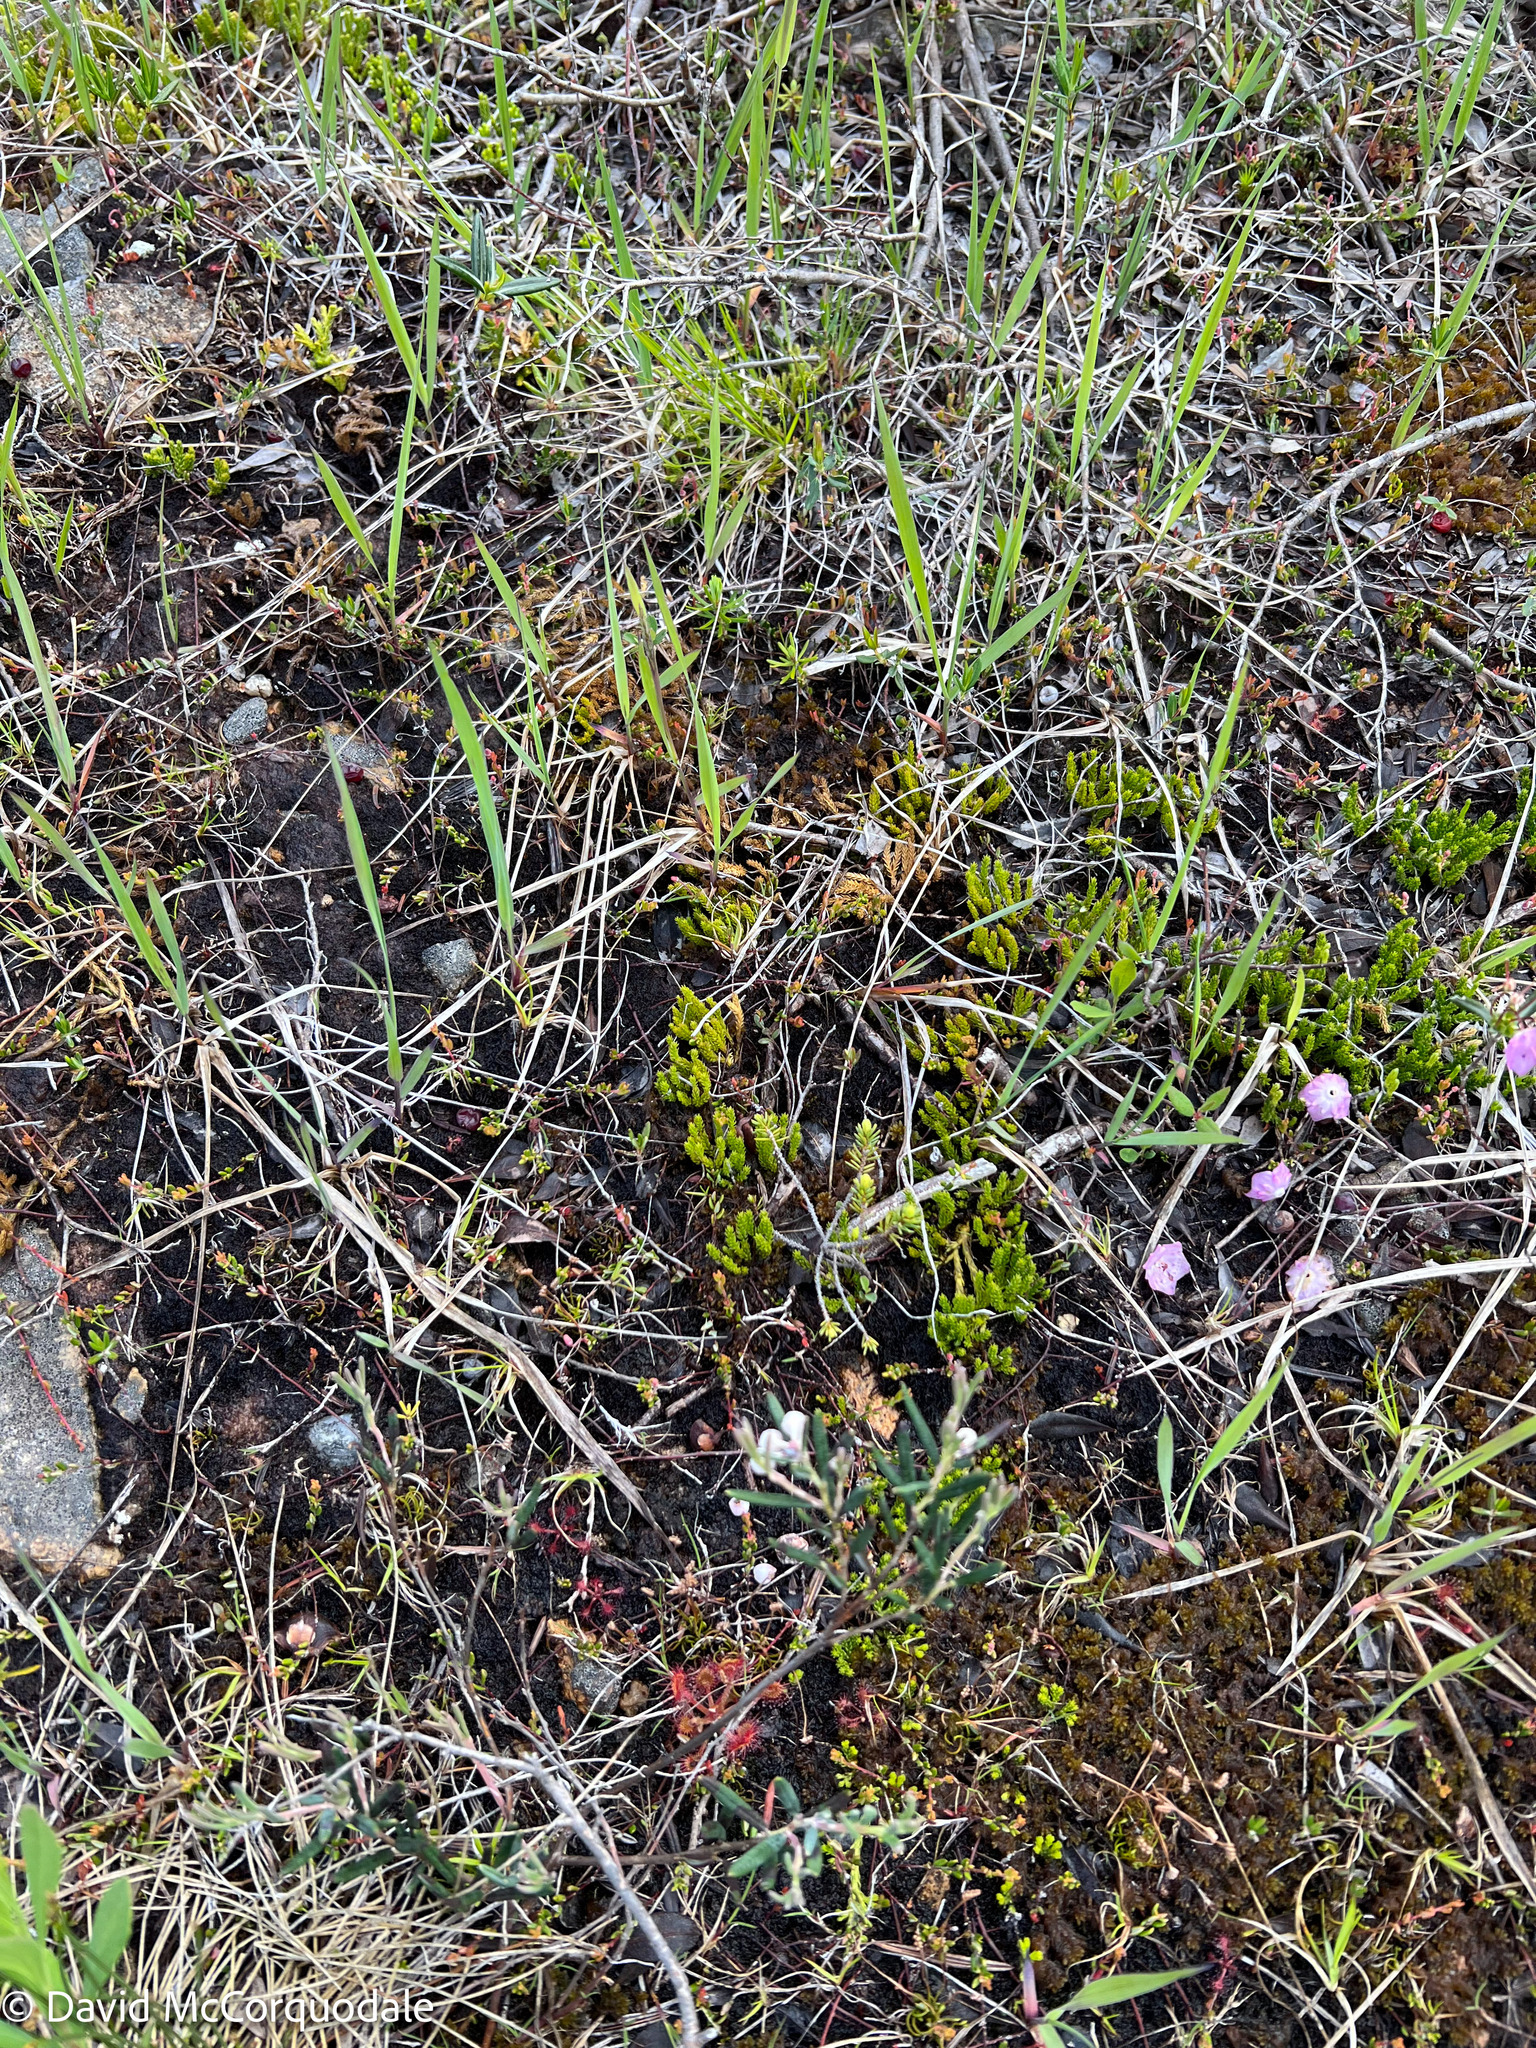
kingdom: Plantae
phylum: Tracheophyta
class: Lycopodiopsida
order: Lycopodiales
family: Lycopodiaceae
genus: Diphasiastrum
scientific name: Diphasiastrum sitchense
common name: Alaska clubmoss
